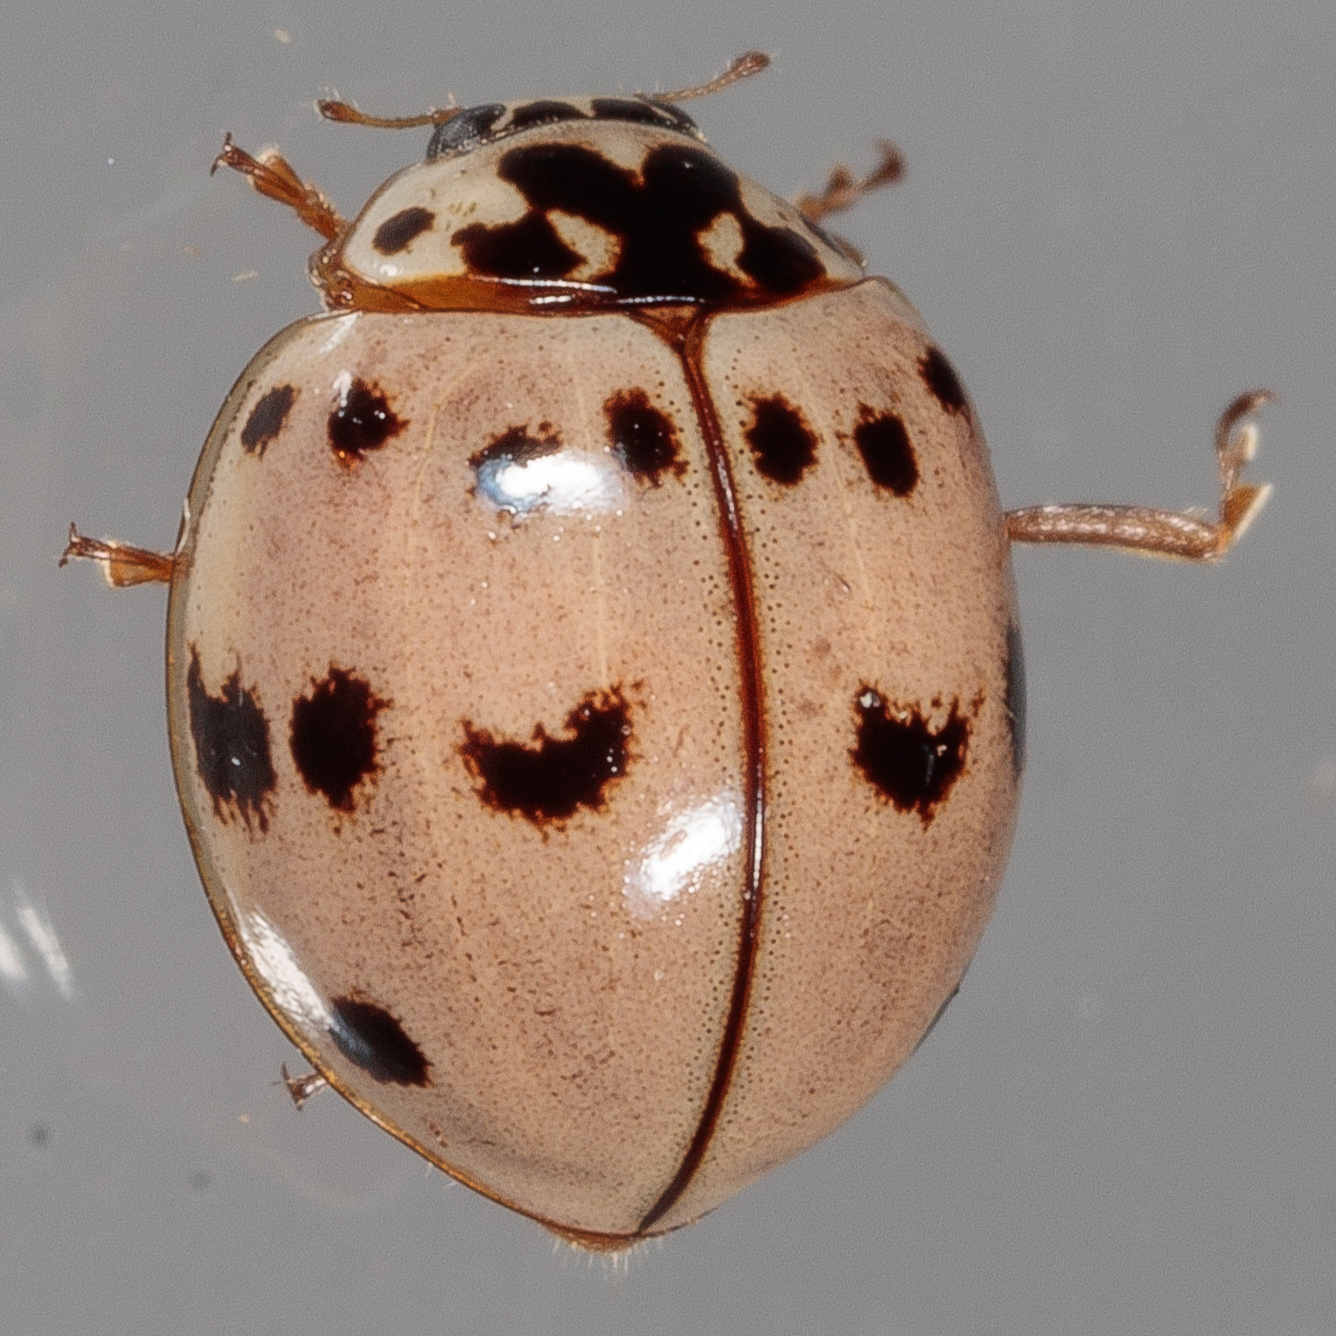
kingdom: Animalia
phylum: Arthropoda
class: Insecta
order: Coleoptera
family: Coccinellidae
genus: Olla
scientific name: Olla v-nigrum
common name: Ashy gray lady beetle
